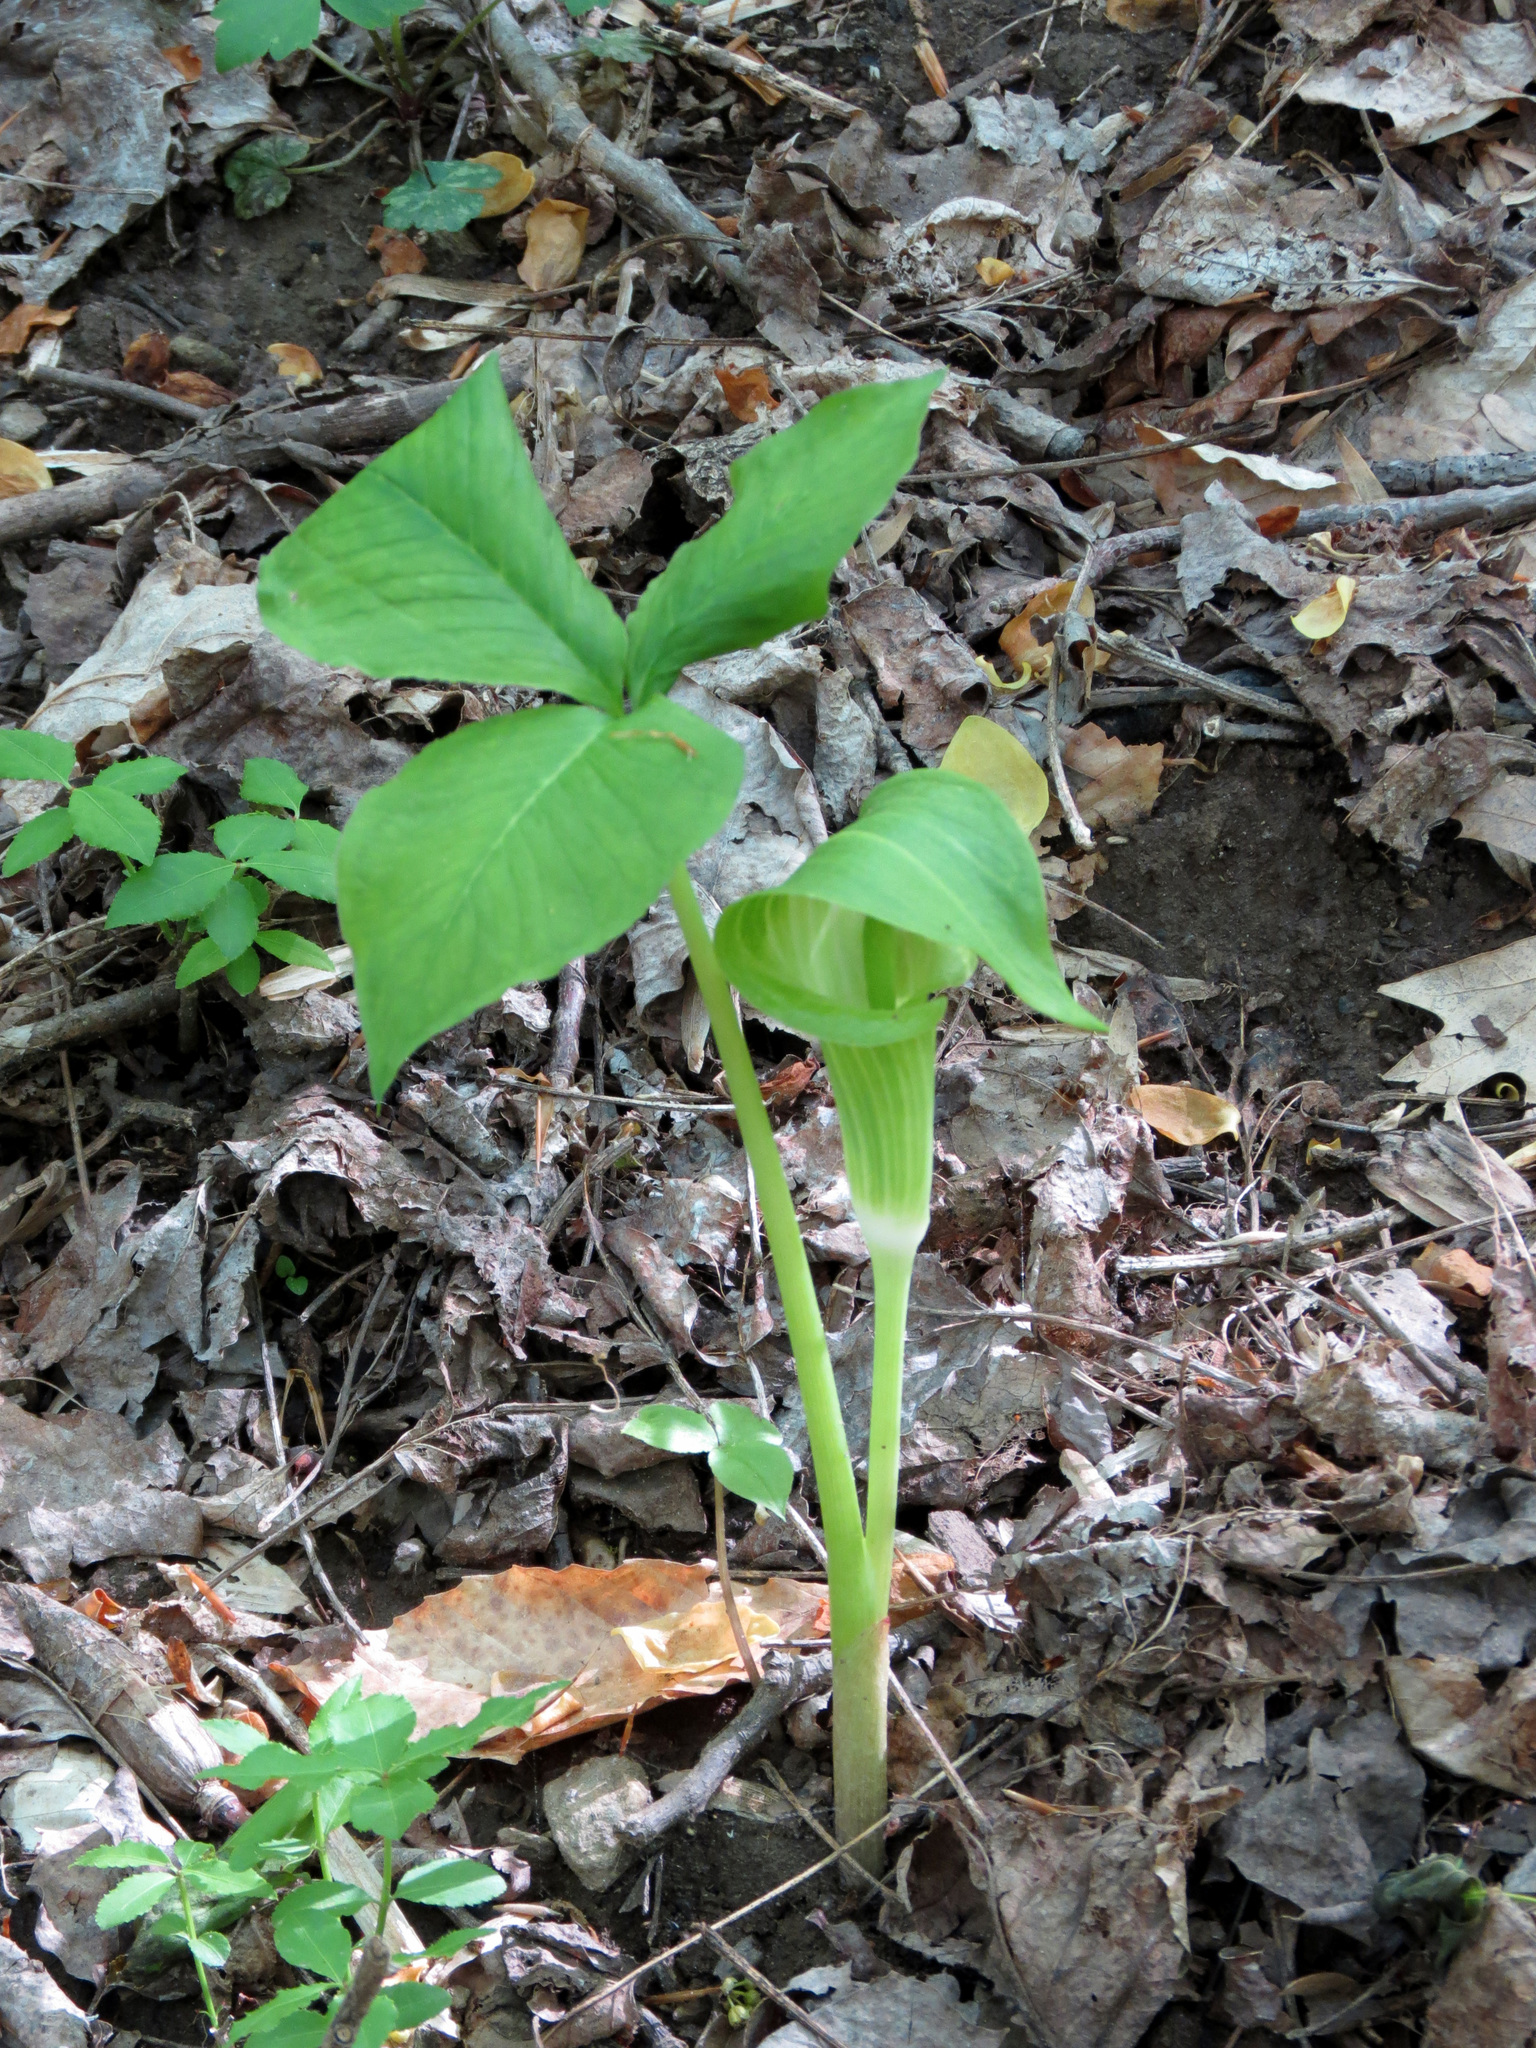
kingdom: Plantae
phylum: Tracheophyta
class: Liliopsida
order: Alismatales
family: Araceae
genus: Arisaema
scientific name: Arisaema triphyllum
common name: Jack-in-the-pulpit
